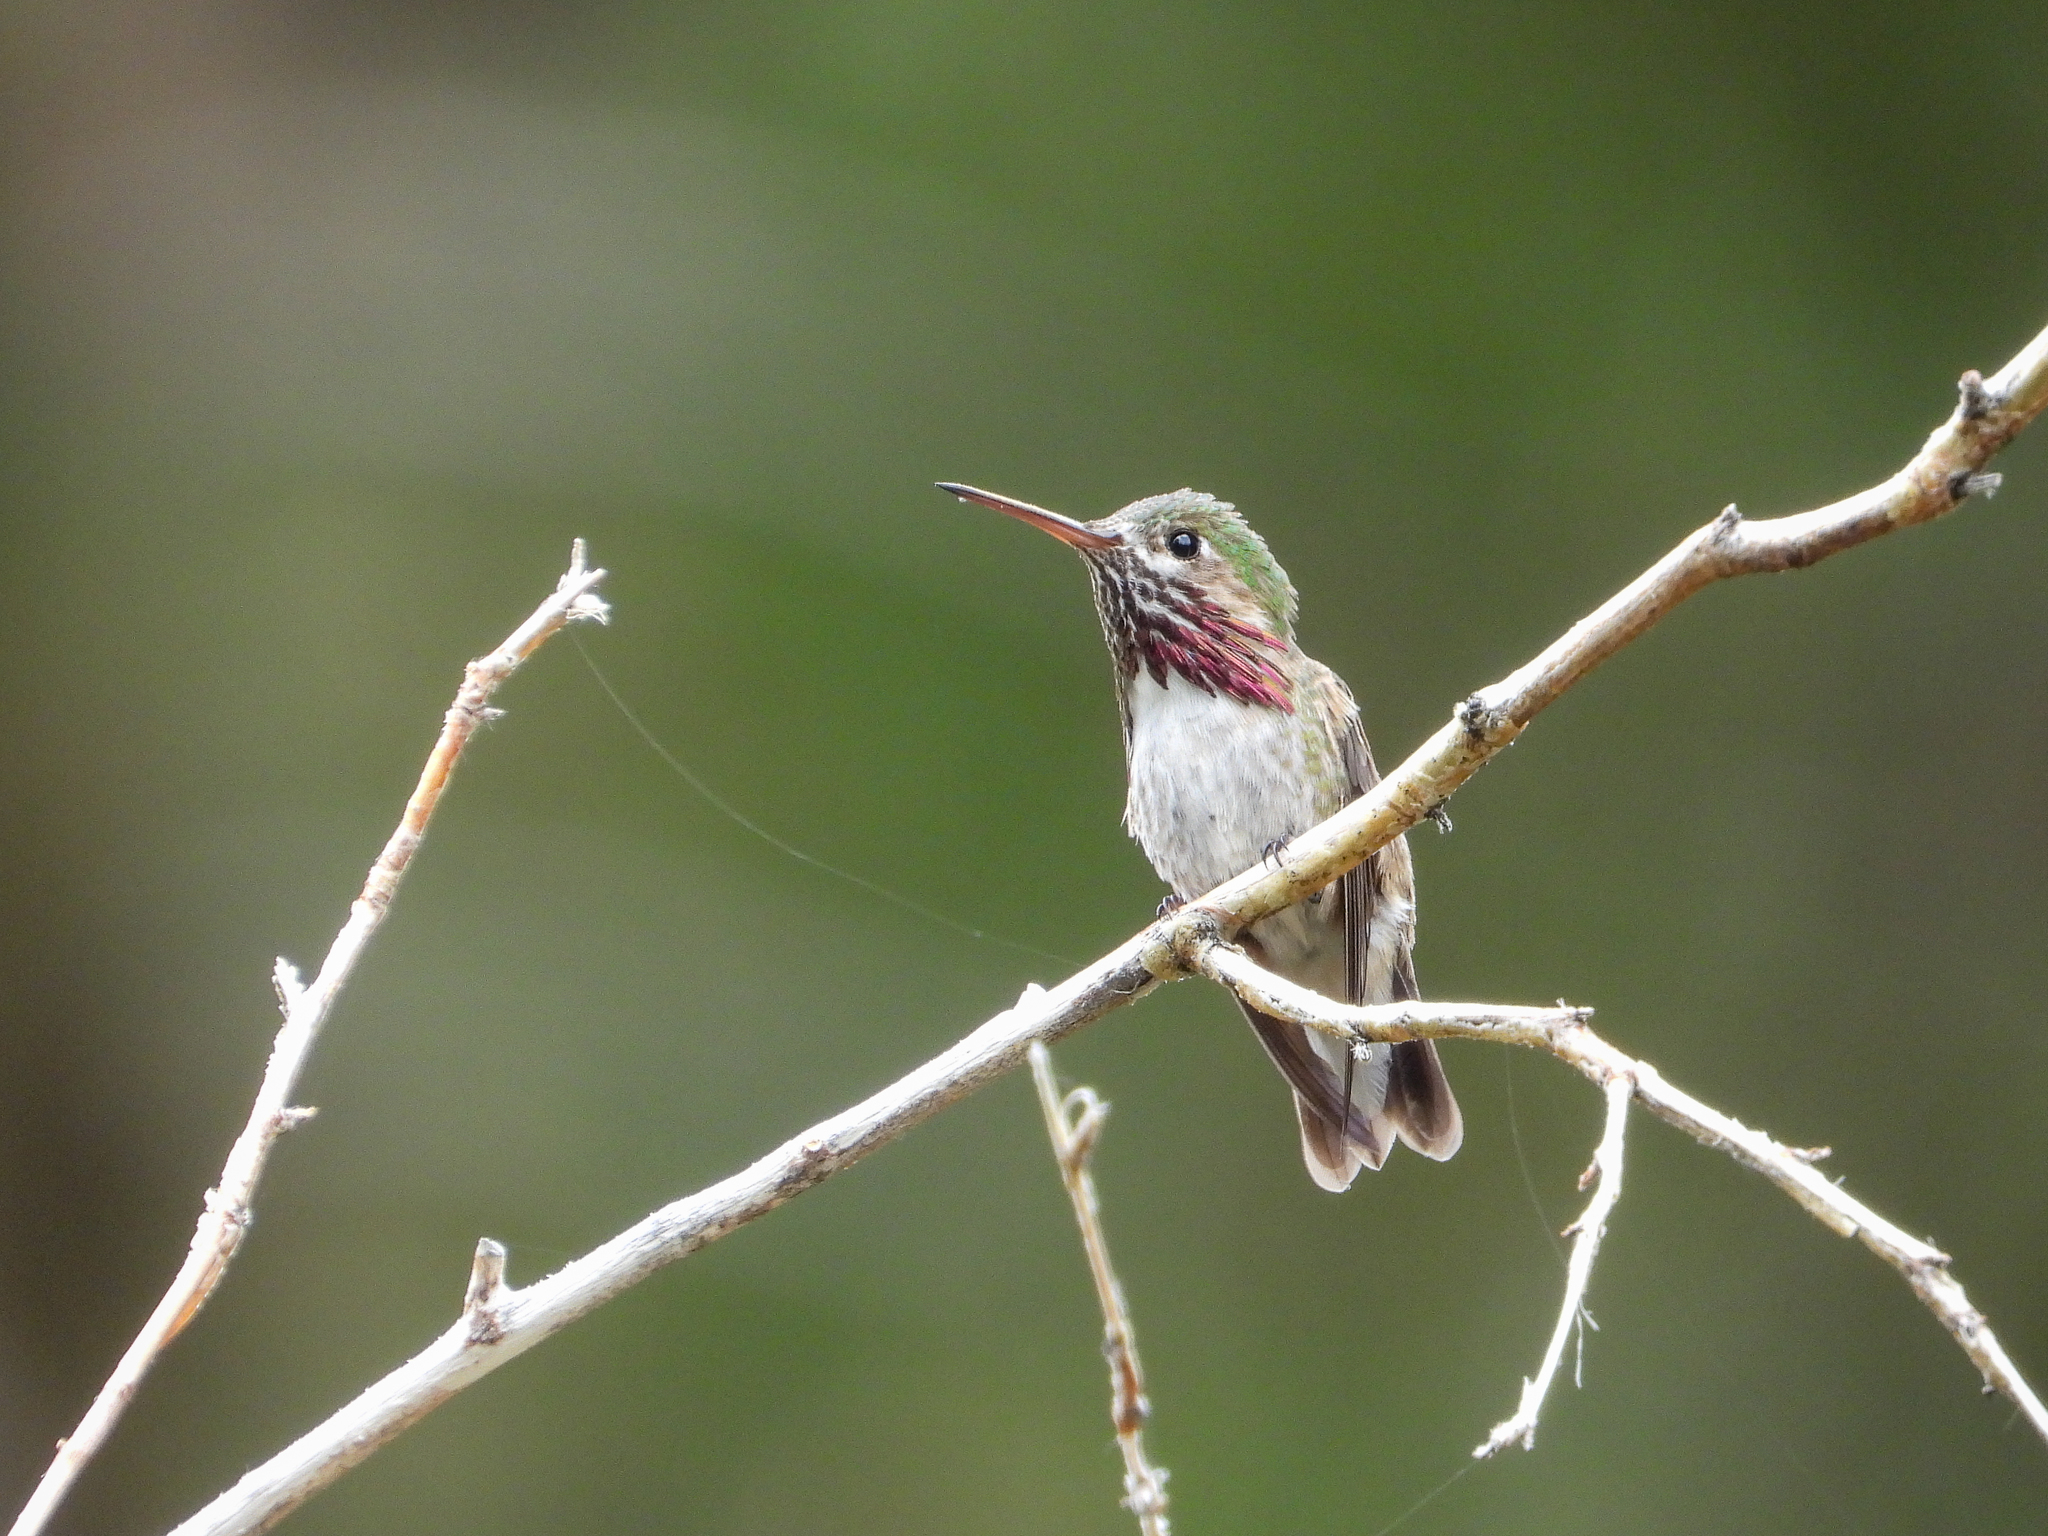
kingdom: Animalia
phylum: Chordata
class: Aves
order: Apodiformes
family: Trochilidae
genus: Selasphorus
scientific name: Selasphorus calliope
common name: Calliope hummingbird
